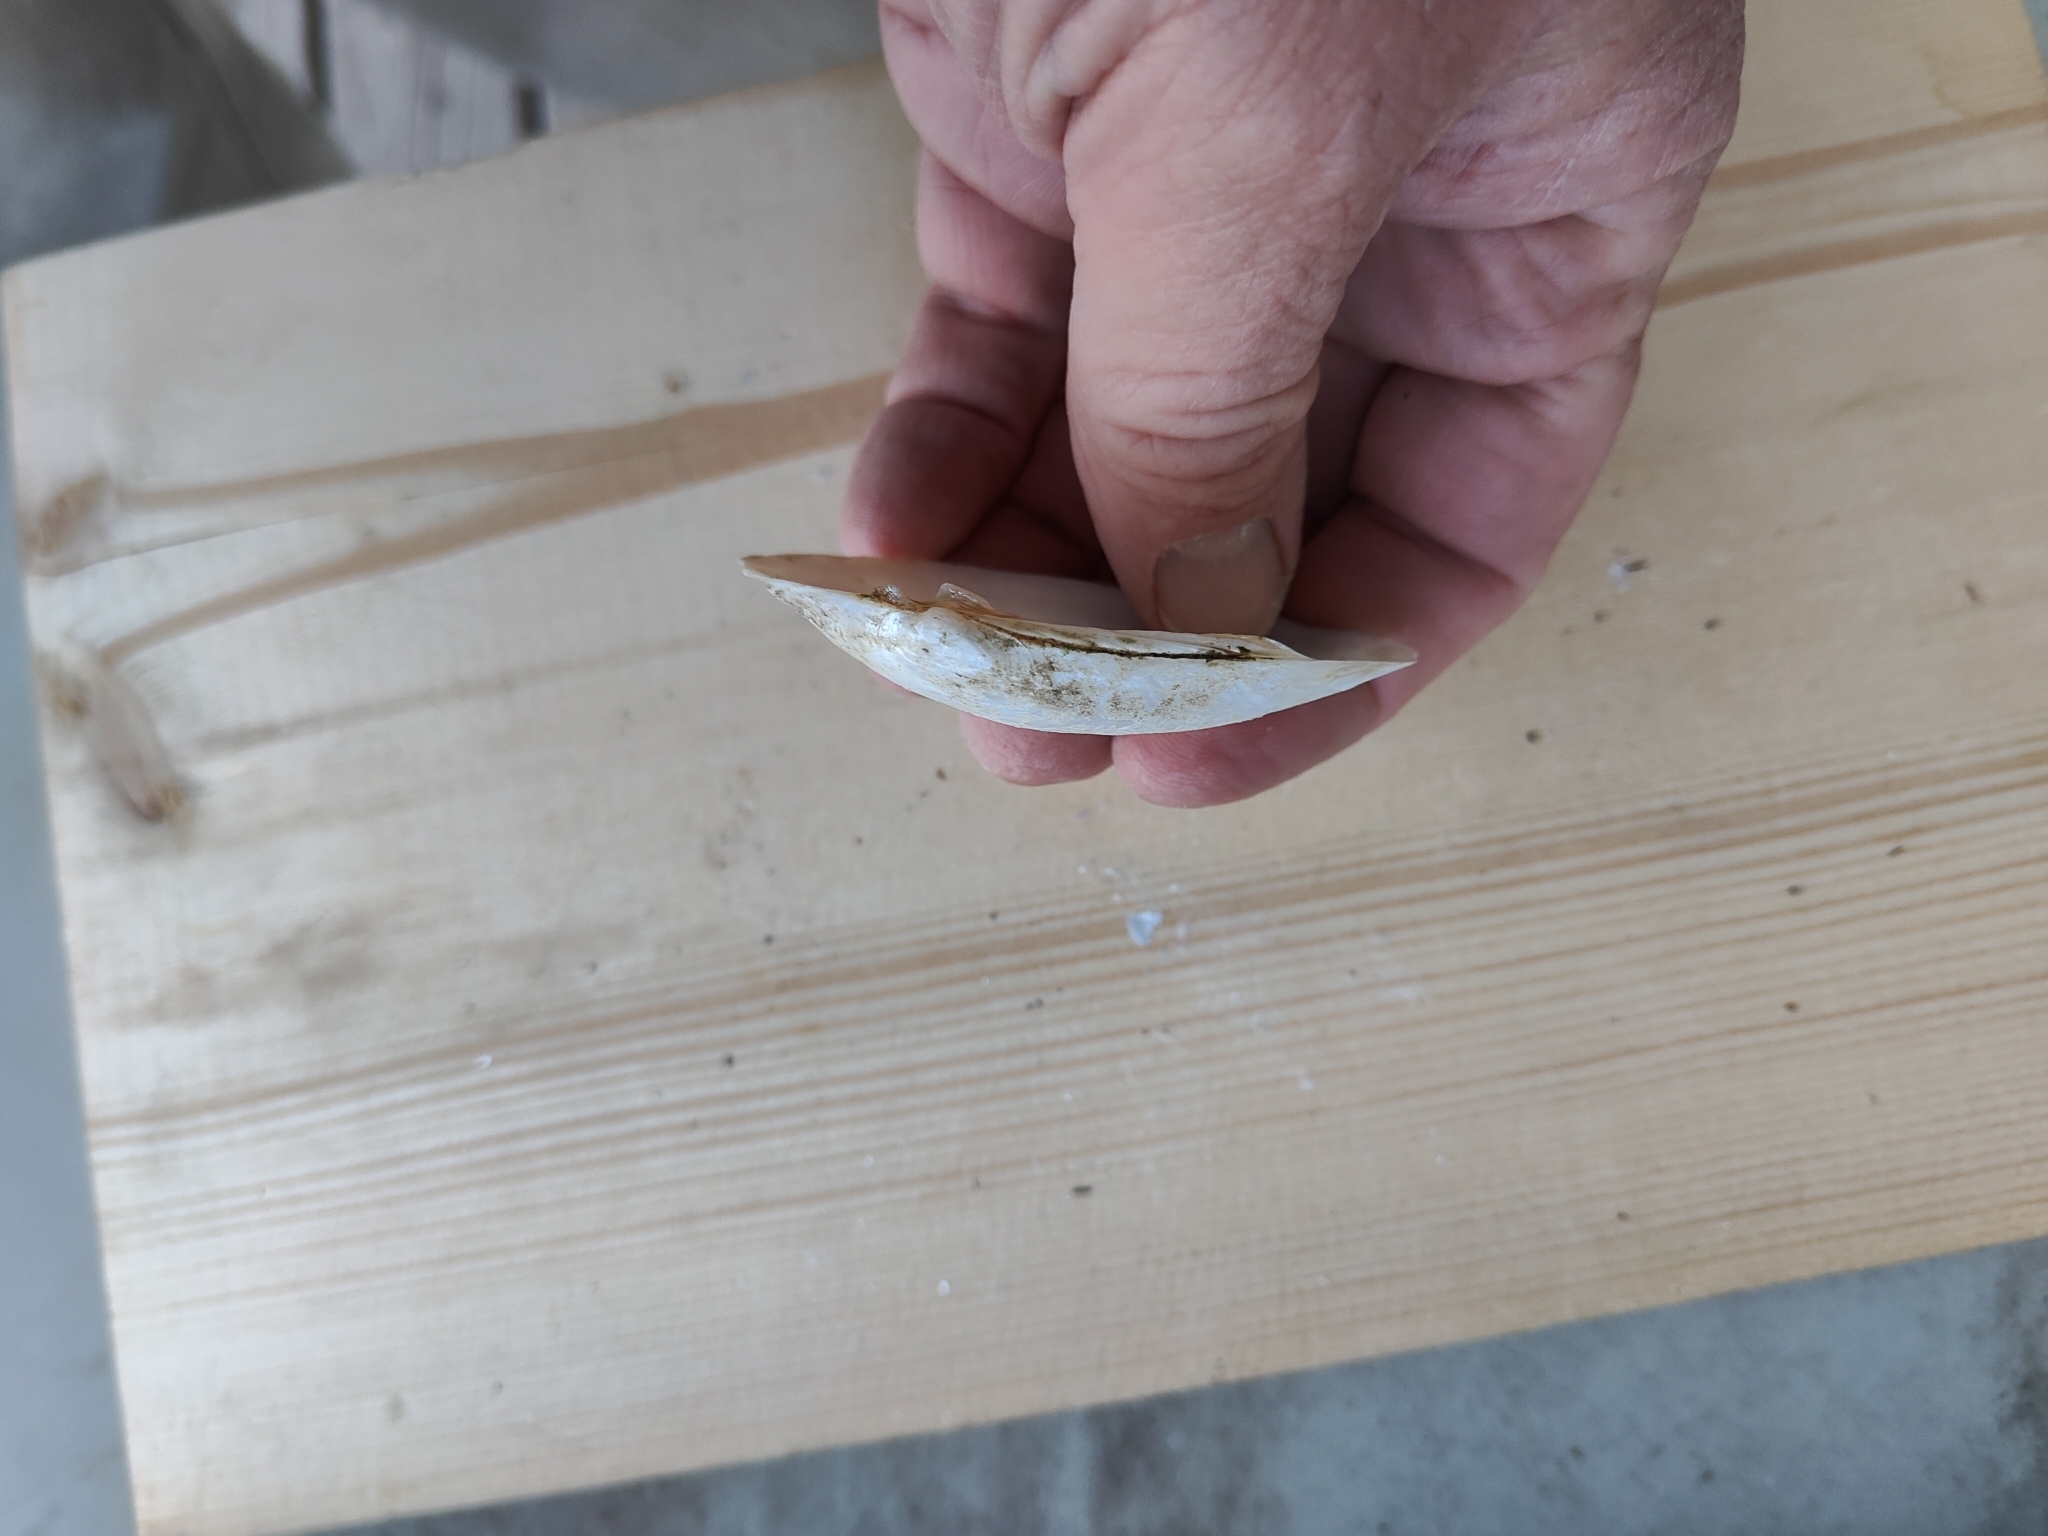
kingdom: Animalia
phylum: Mollusca
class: Bivalvia
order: Unionida
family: Unionidae
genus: Lampsilis
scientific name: Lampsilis siliquoidea
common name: Fatmucket
